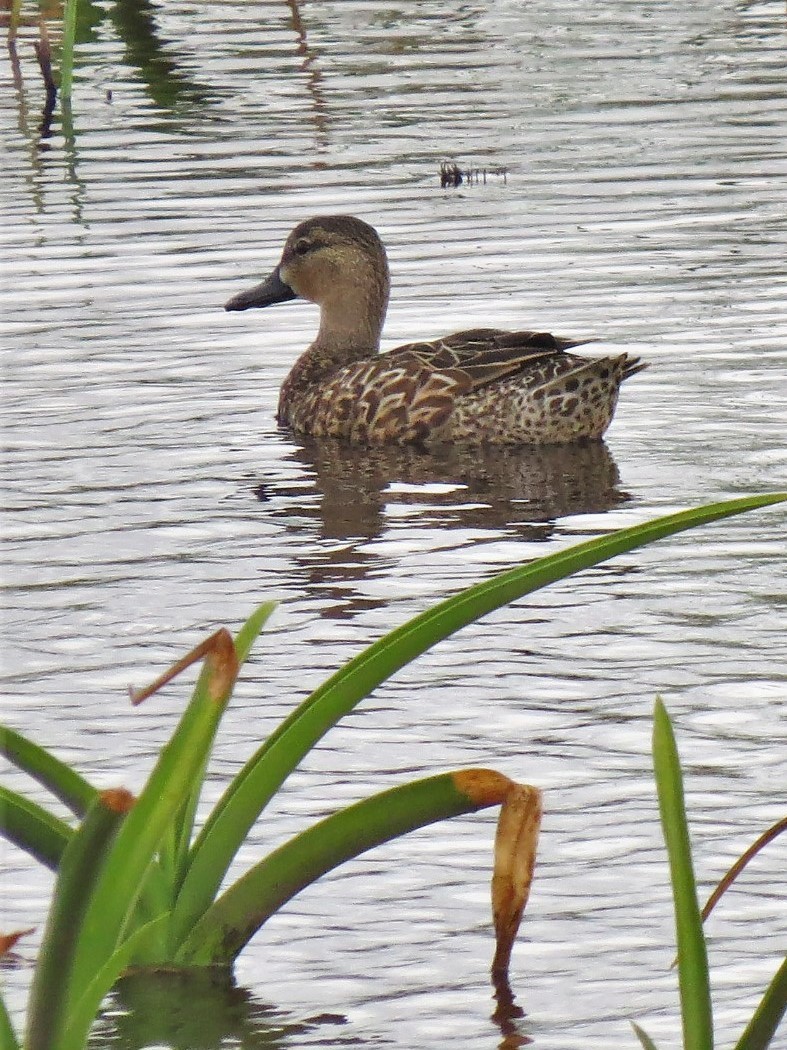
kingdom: Animalia
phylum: Chordata
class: Aves
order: Anseriformes
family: Anatidae
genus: Spatula
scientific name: Spatula discors
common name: Blue-winged teal
